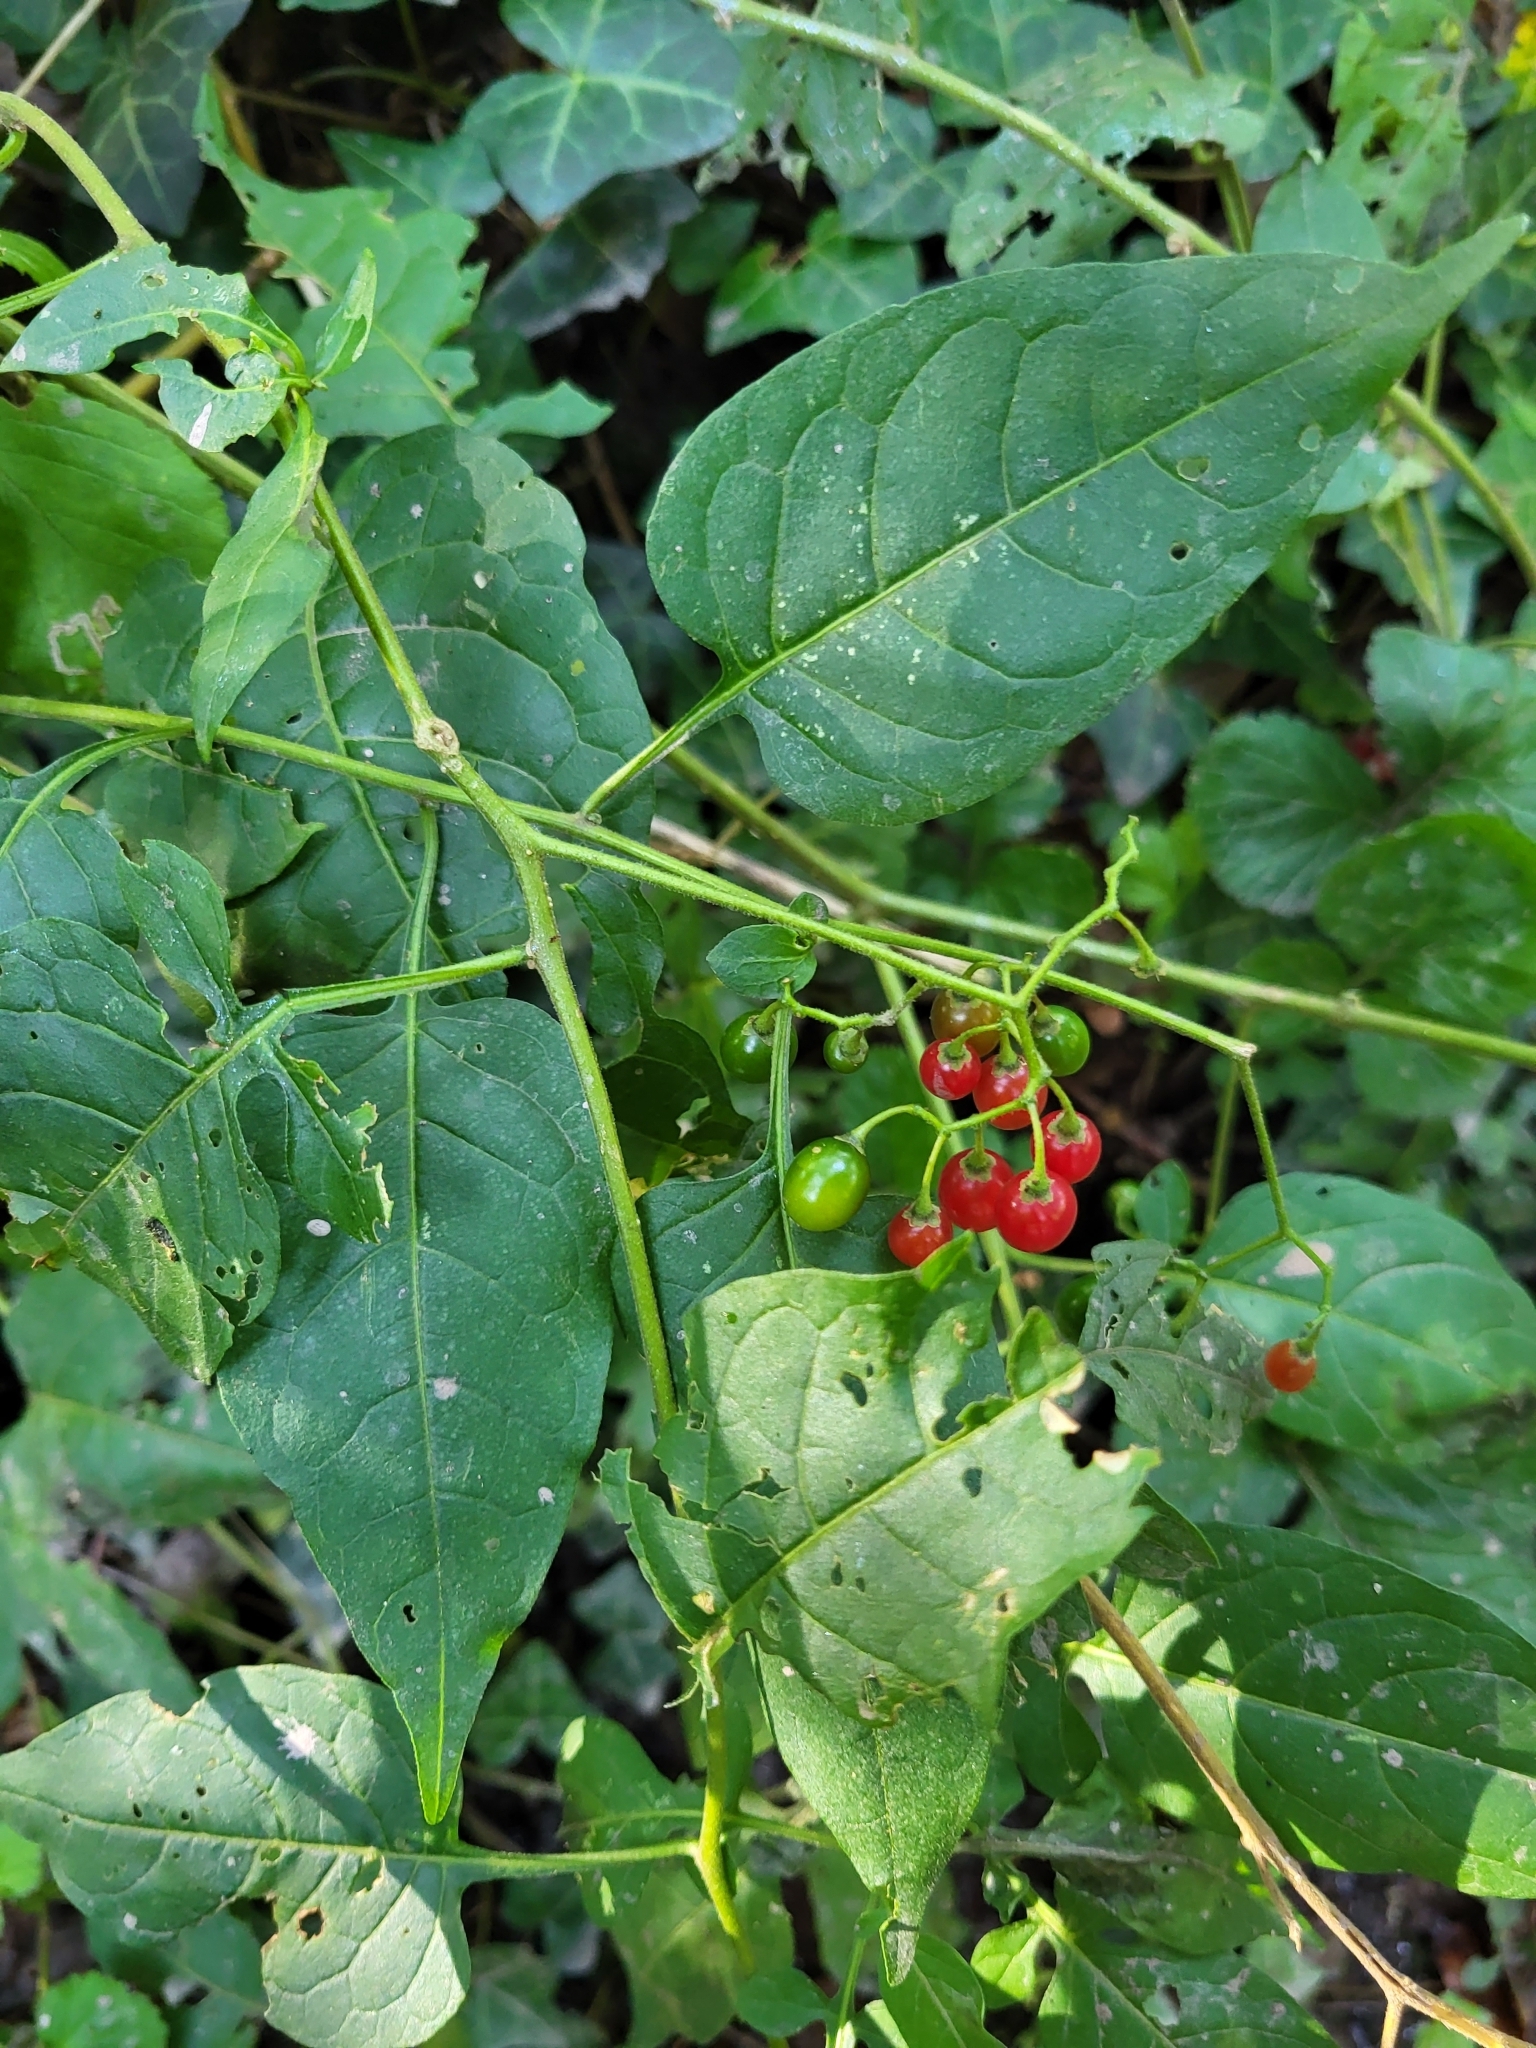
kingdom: Plantae
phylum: Tracheophyta
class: Magnoliopsida
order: Solanales
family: Solanaceae
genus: Solanum
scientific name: Solanum dulcamara
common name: Climbing nightshade
